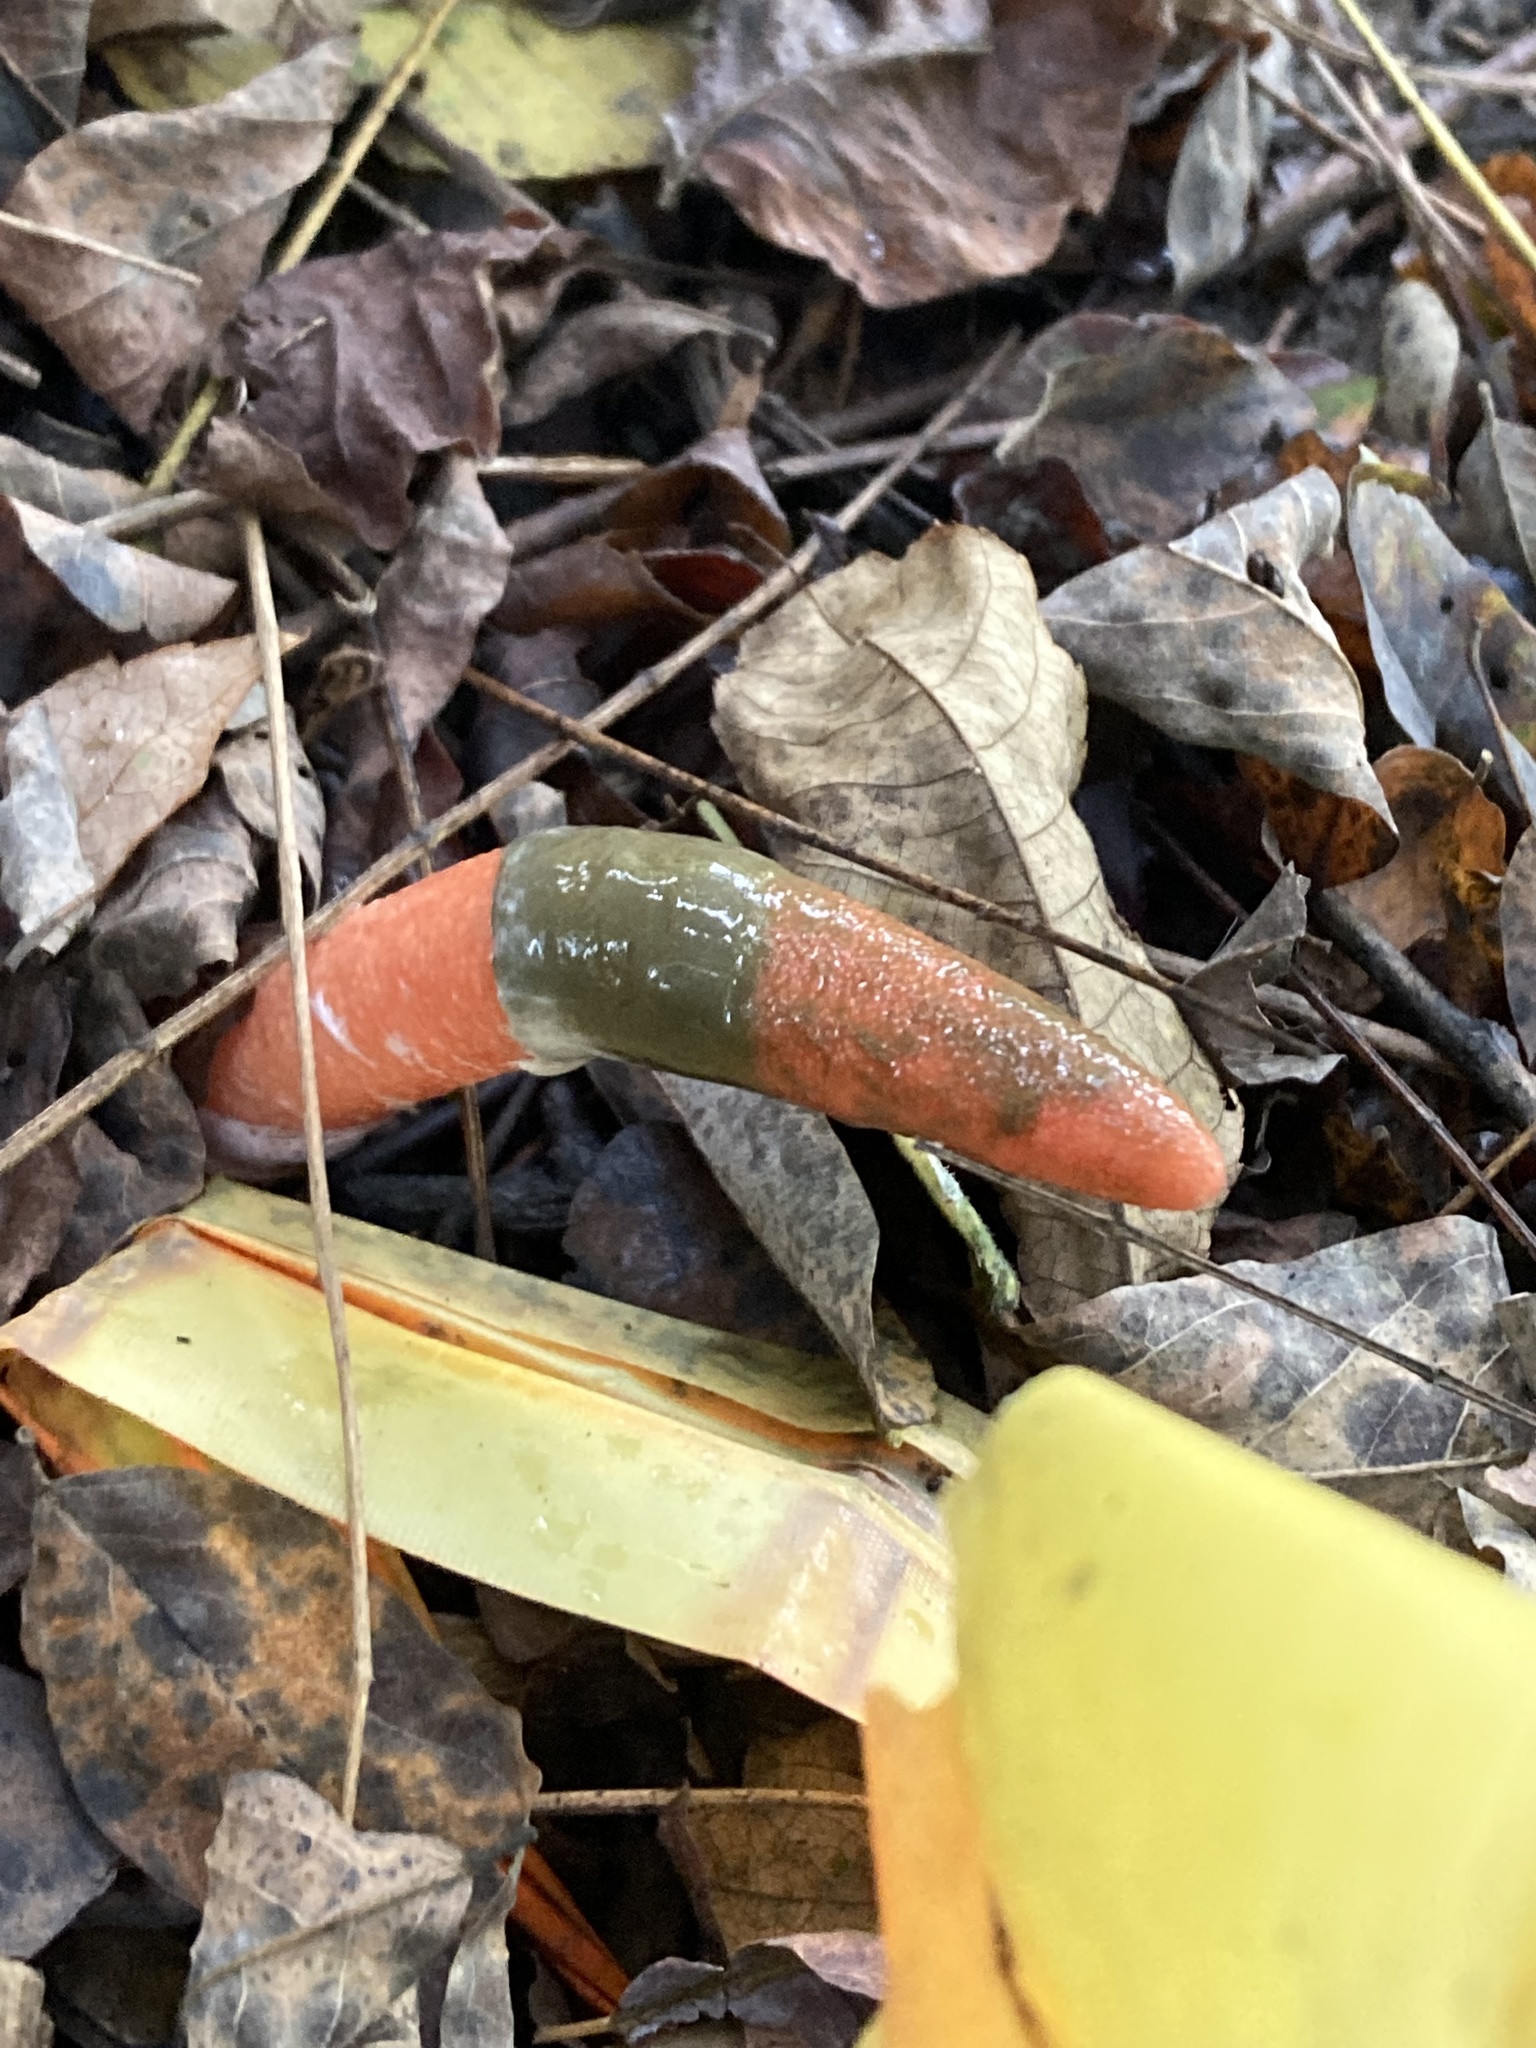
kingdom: Fungi
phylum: Basidiomycota
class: Agaricomycetes
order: Phallales
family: Phallaceae
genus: Mutinus
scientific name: Mutinus elegans
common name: Devil's dipstick
